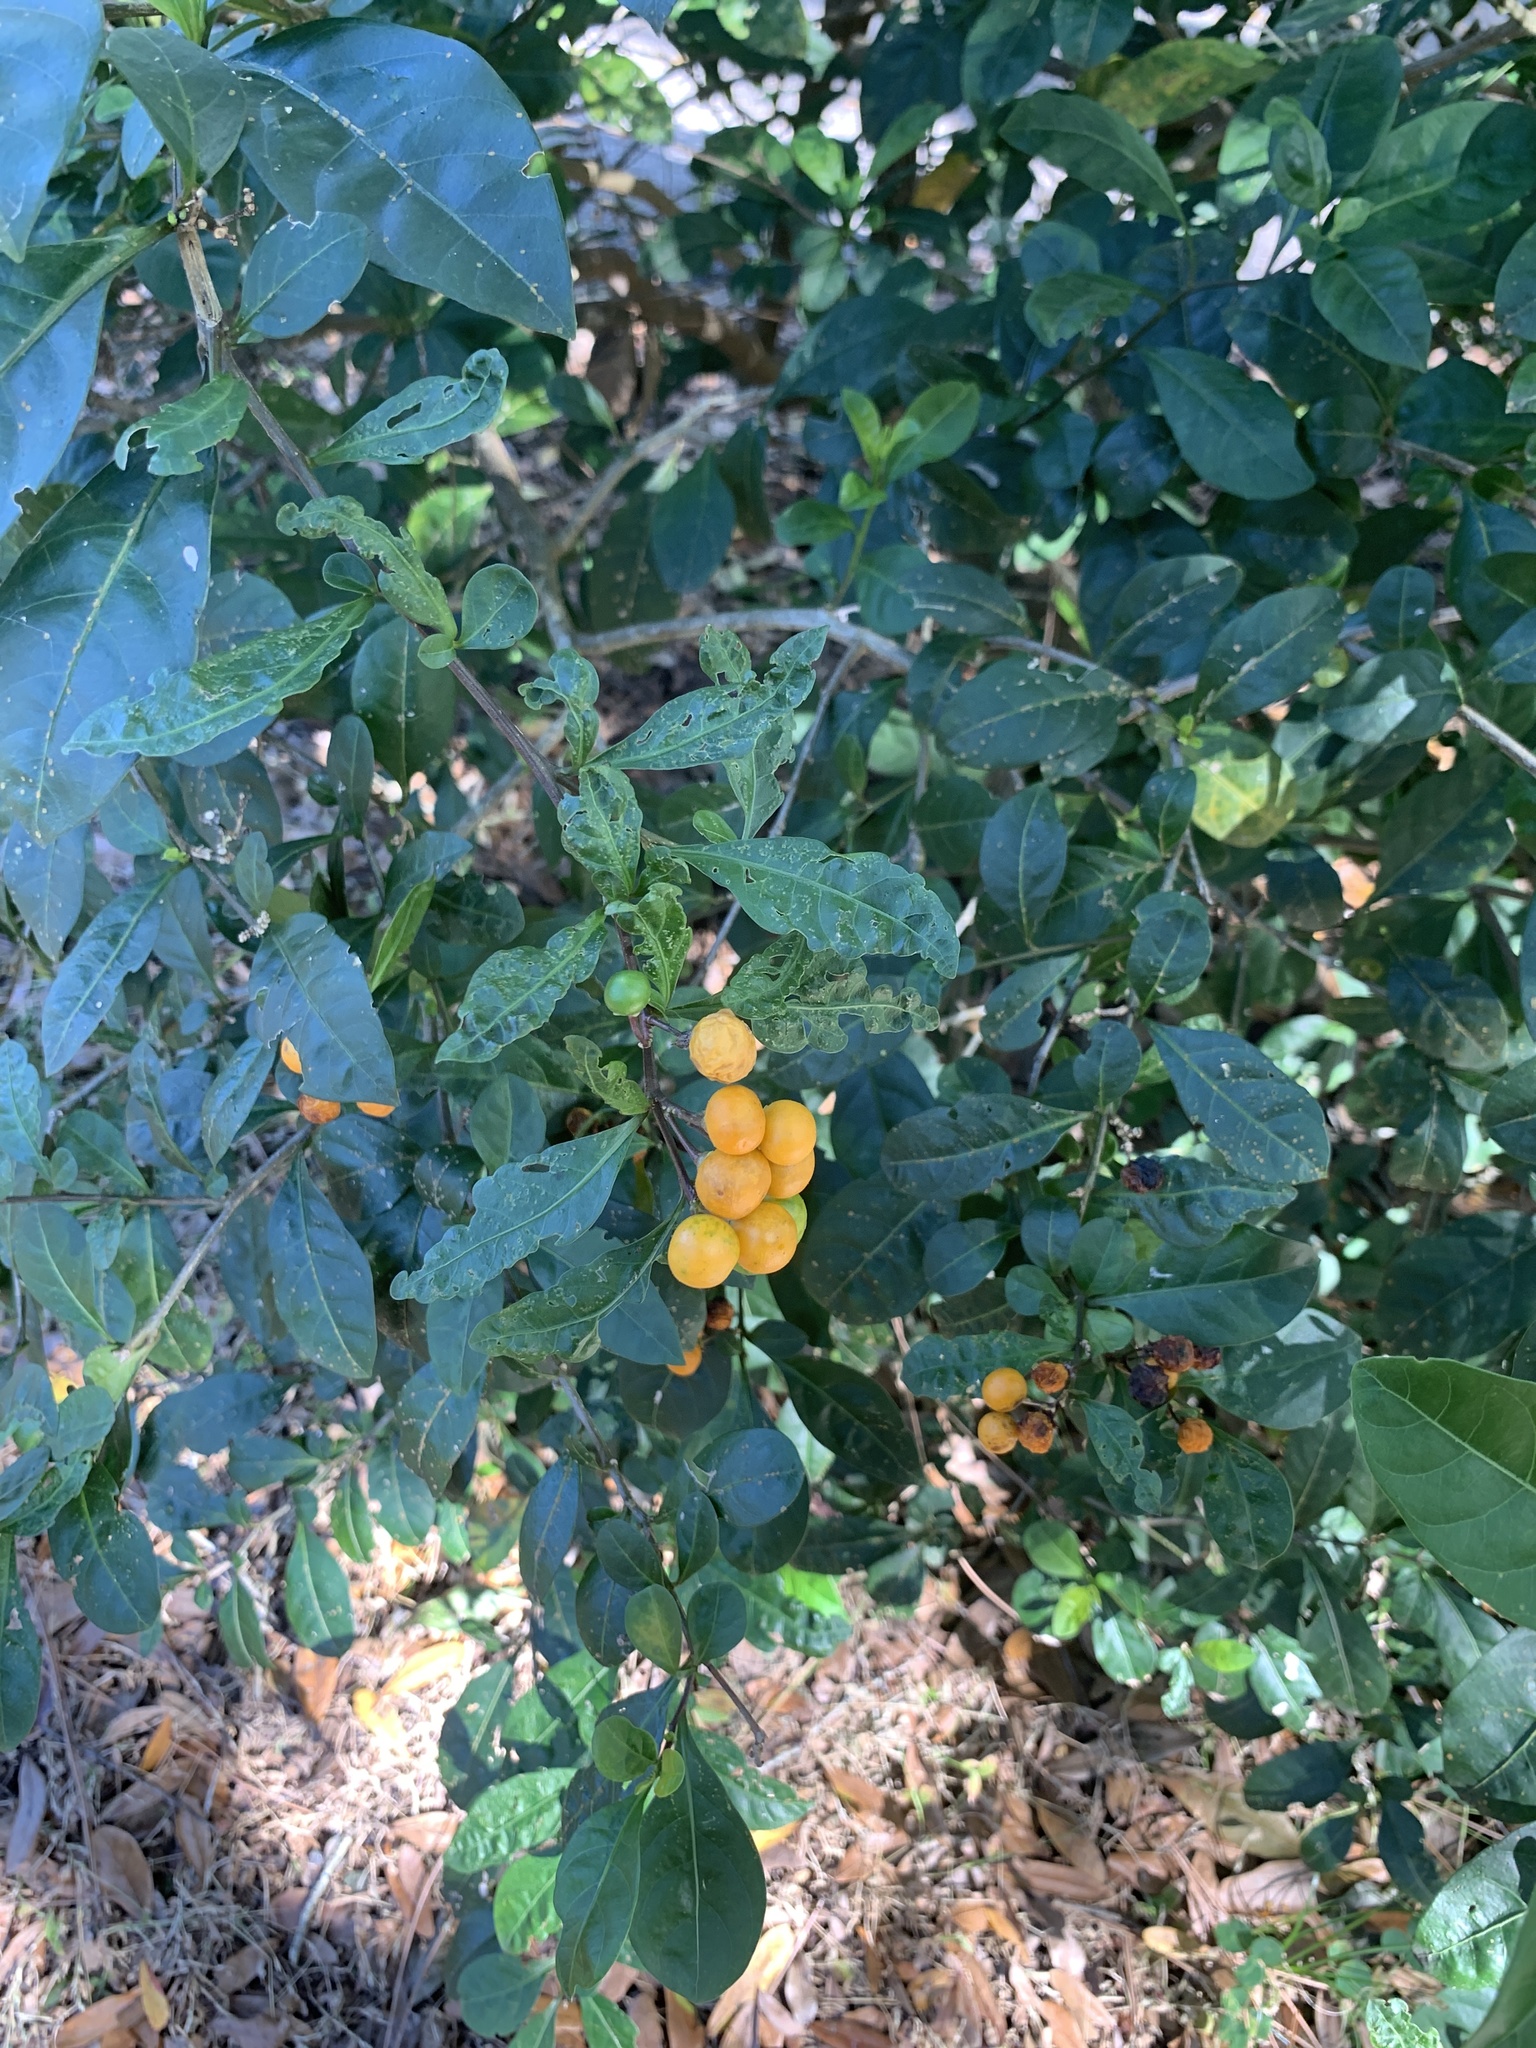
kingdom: Plantae
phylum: Tracheophyta
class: Magnoliopsida
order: Solanales
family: Solanaceae
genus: Solanum
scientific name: Solanum diphyllum
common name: Twoleaf nightshade
